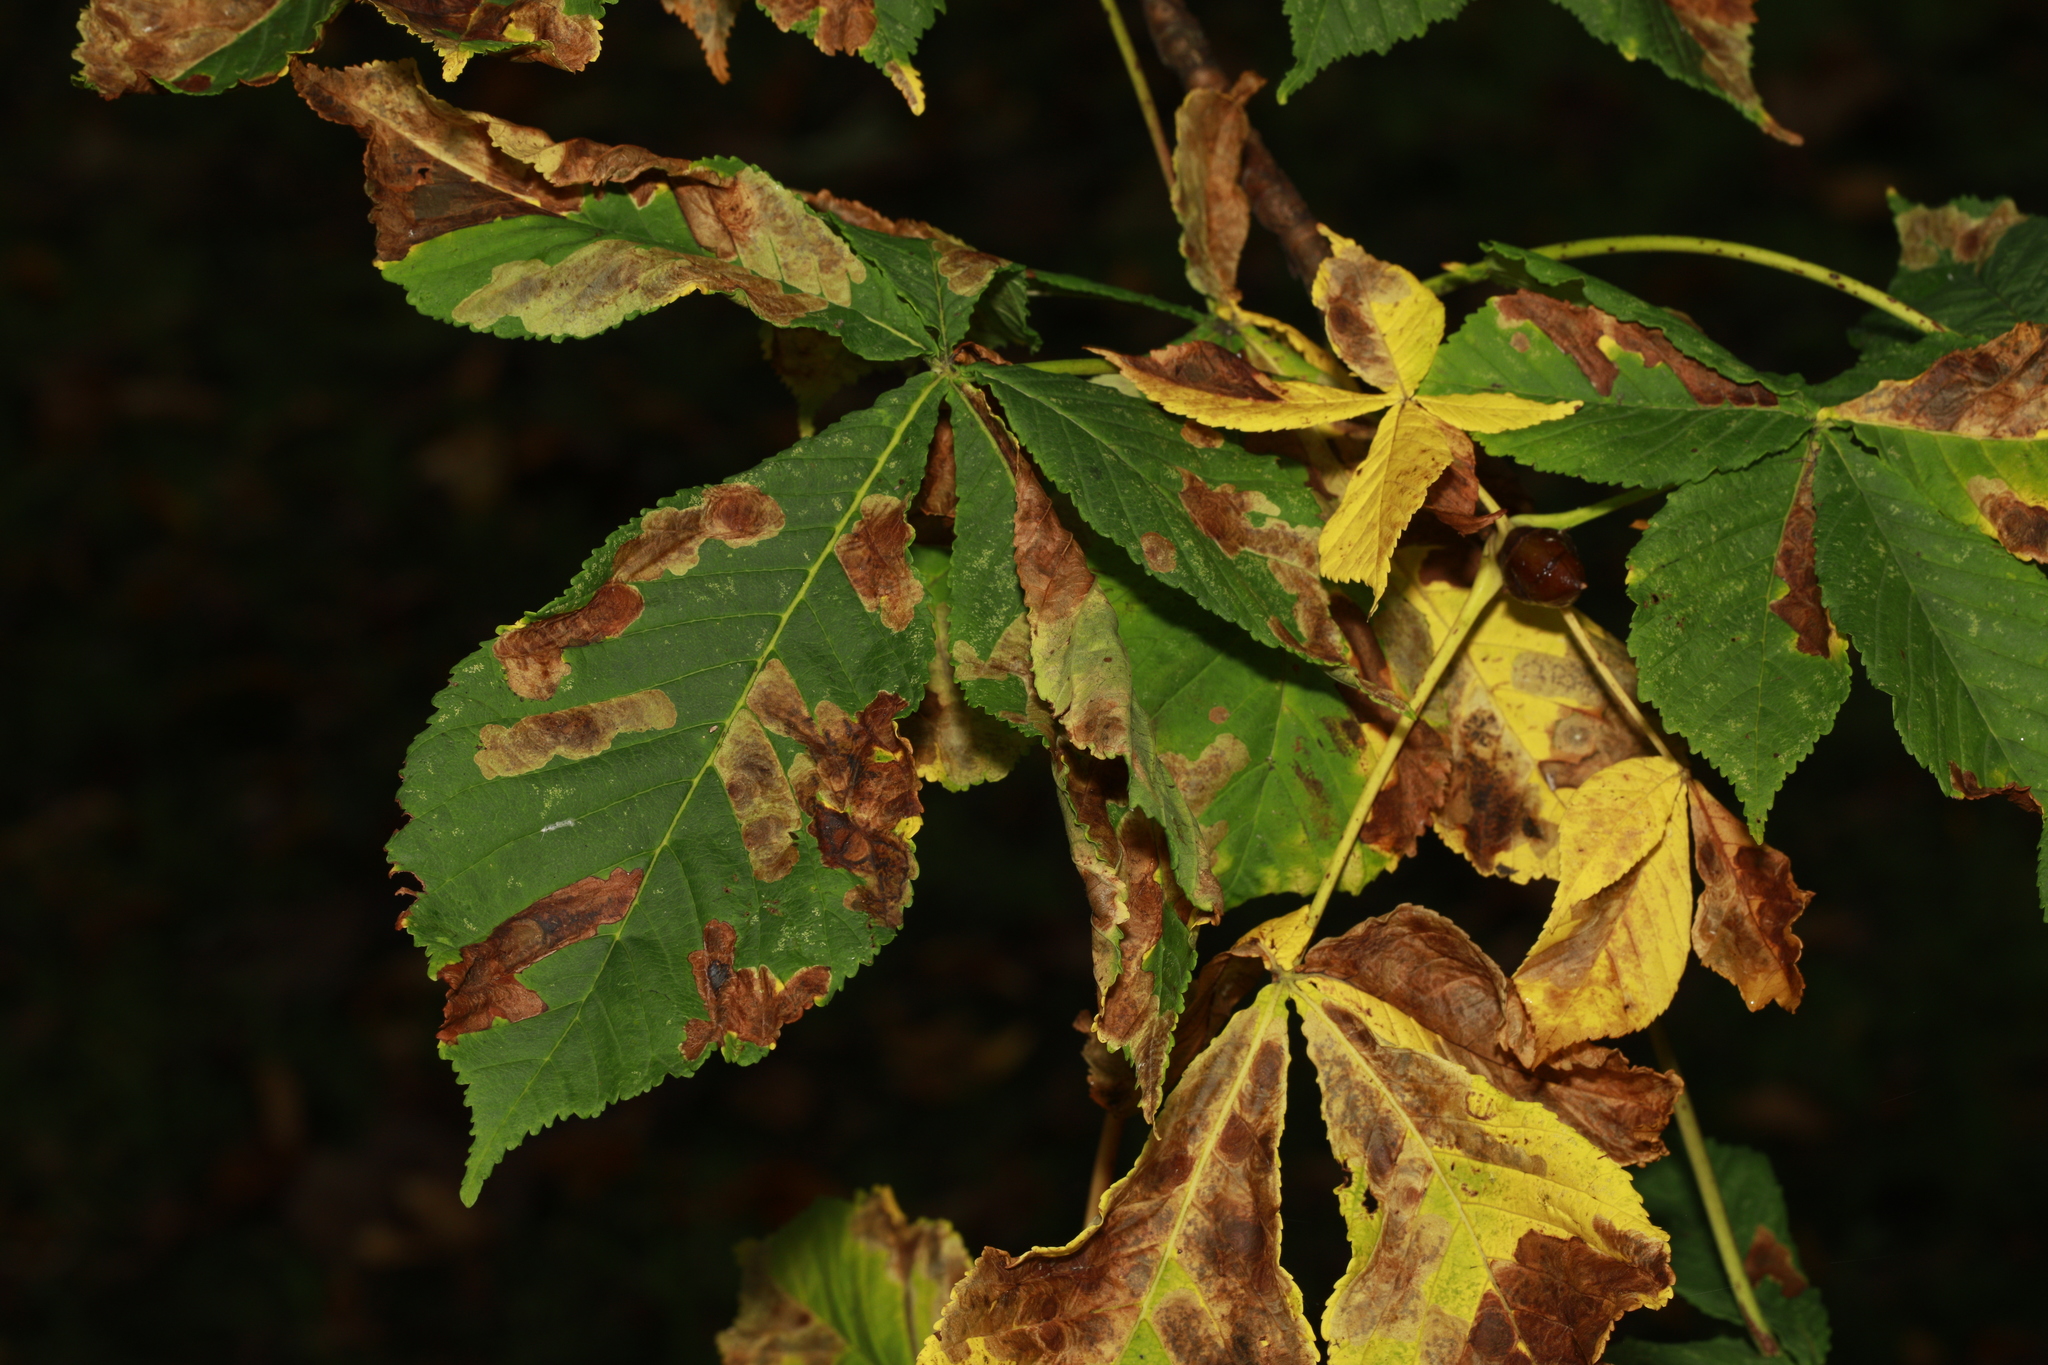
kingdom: Animalia
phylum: Arthropoda
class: Insecta
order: Lepidoptera
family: Gracillariidae
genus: Cameraria
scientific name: Cameraria ohridella
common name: Horse-chestnut leaf-miner
